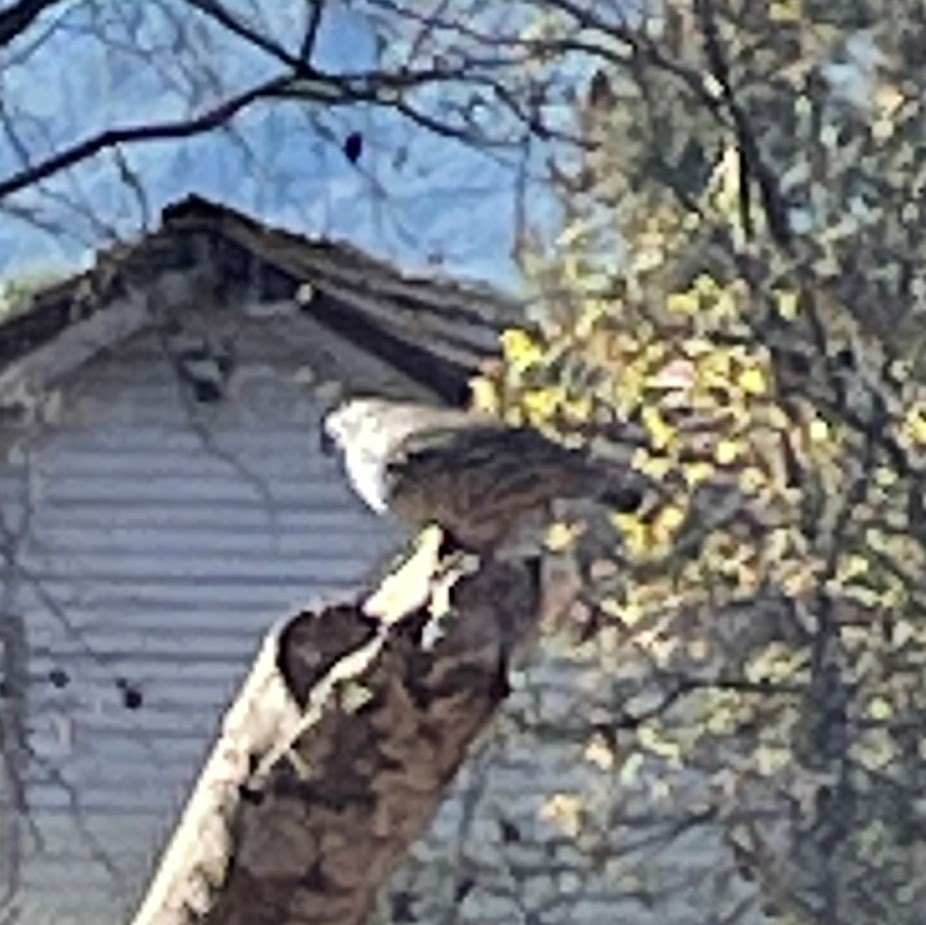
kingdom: Animalia
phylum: Chordata
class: Aves
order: Galliformes
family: Odontophoridae
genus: Callipepla
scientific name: Callipepla californica
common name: California quail
